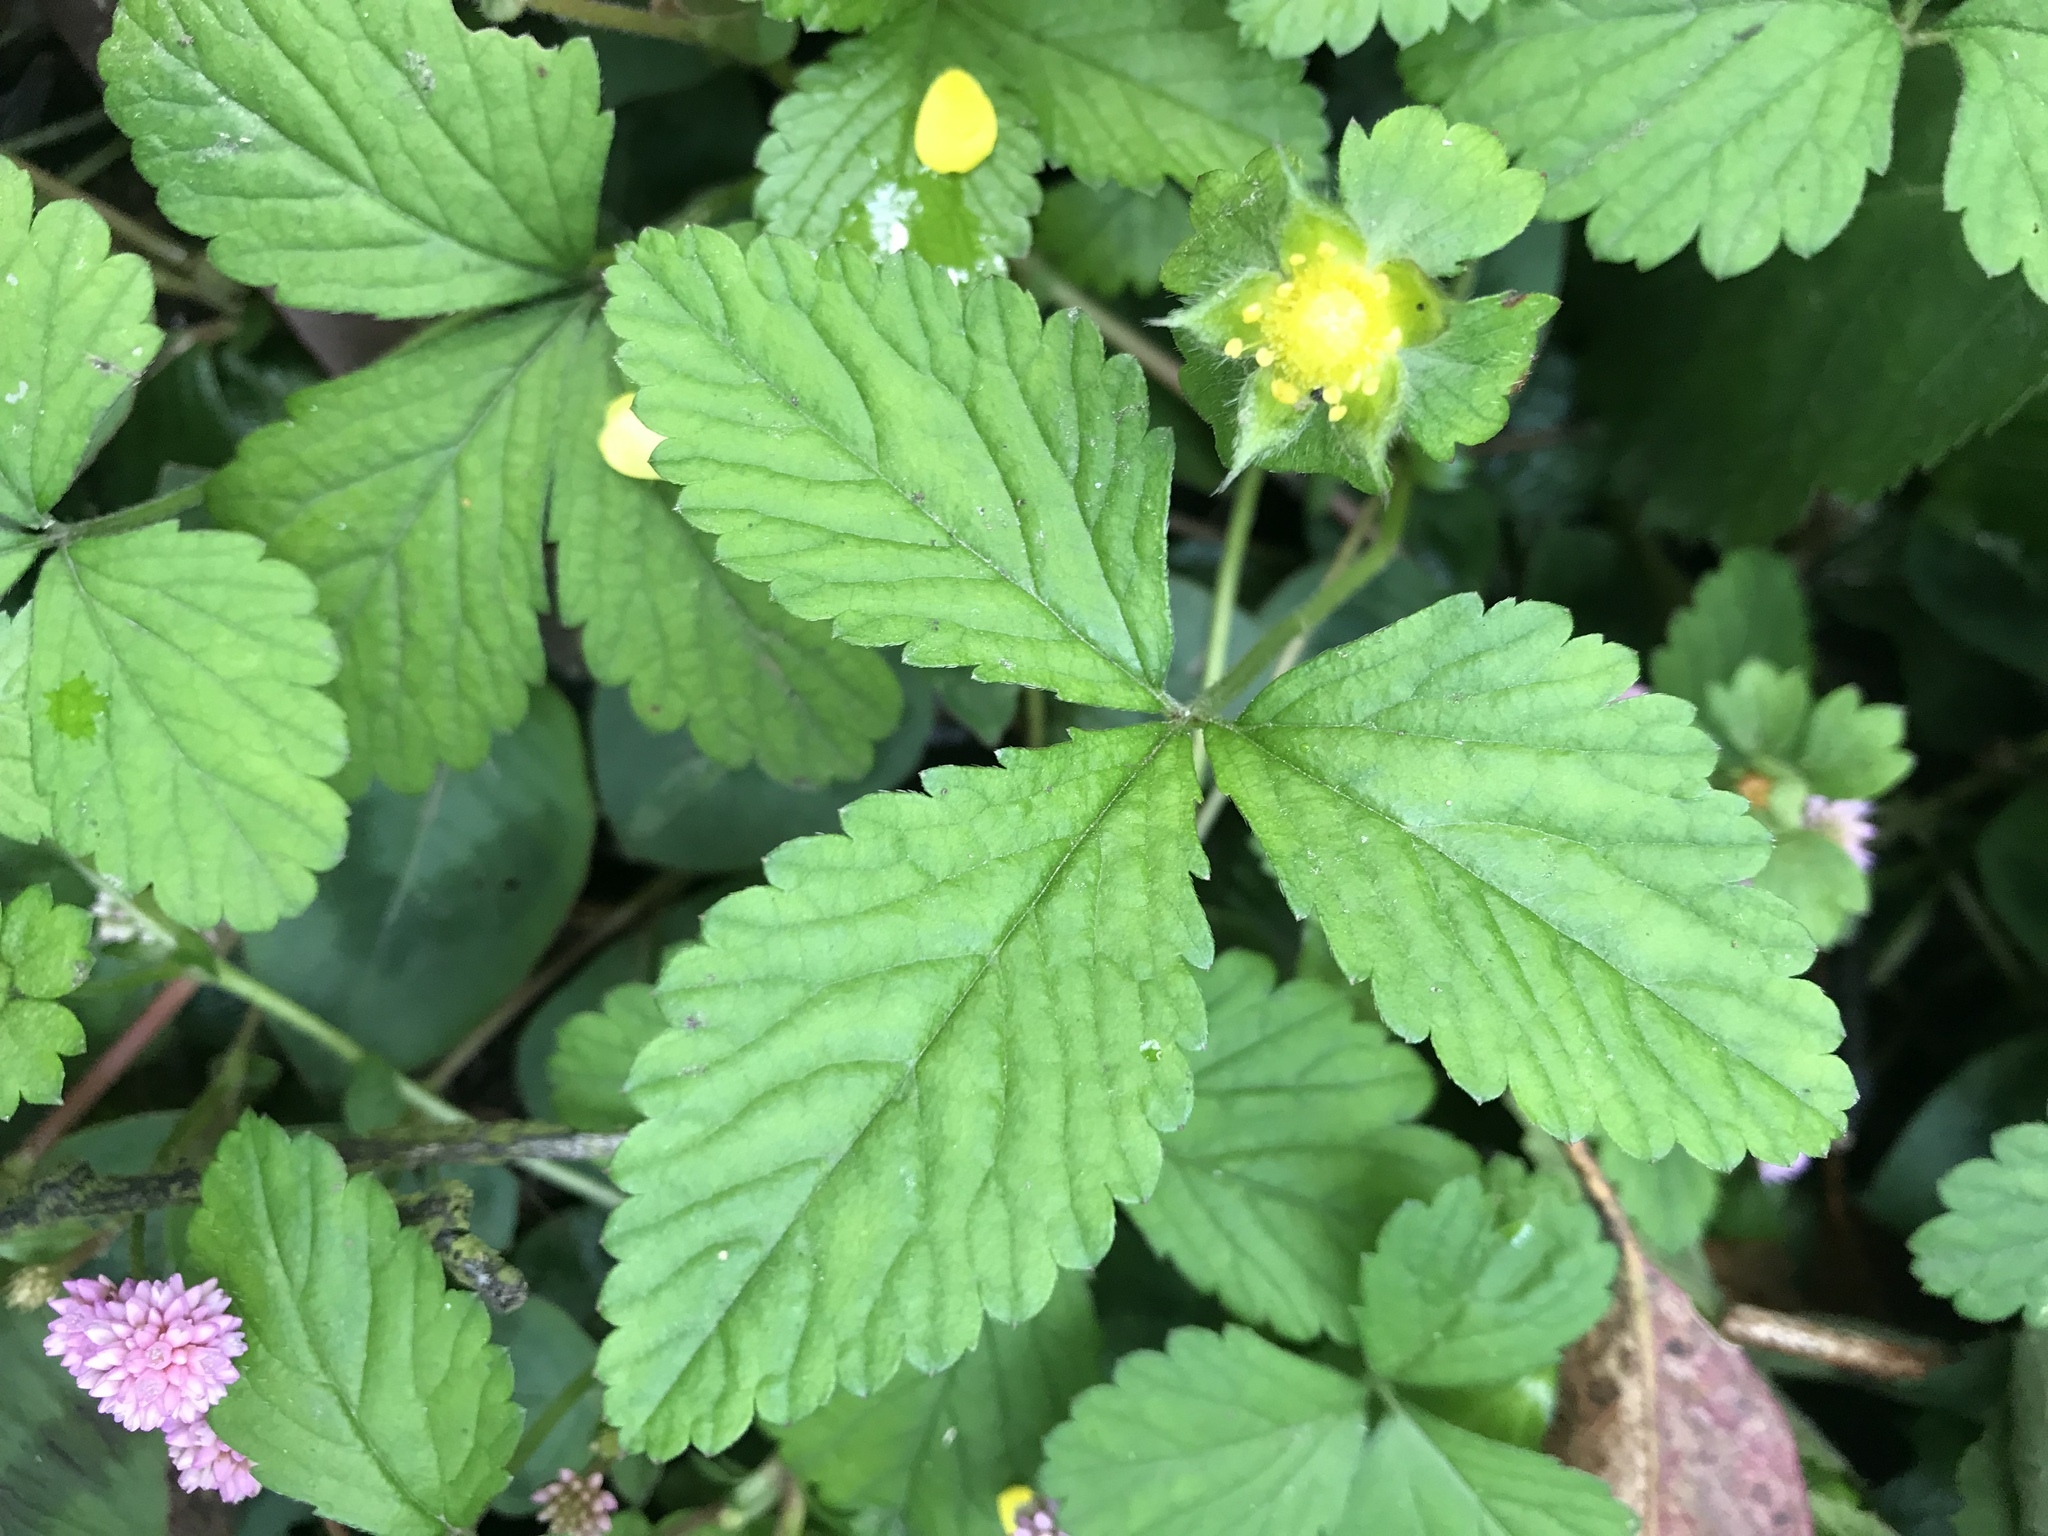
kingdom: Plantae
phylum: Tracheophyta
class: Magnoliopsida
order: Rosales
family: Rosaceae
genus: Potentilla
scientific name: Potentilla indica
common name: Yellow-flowered strawberry
